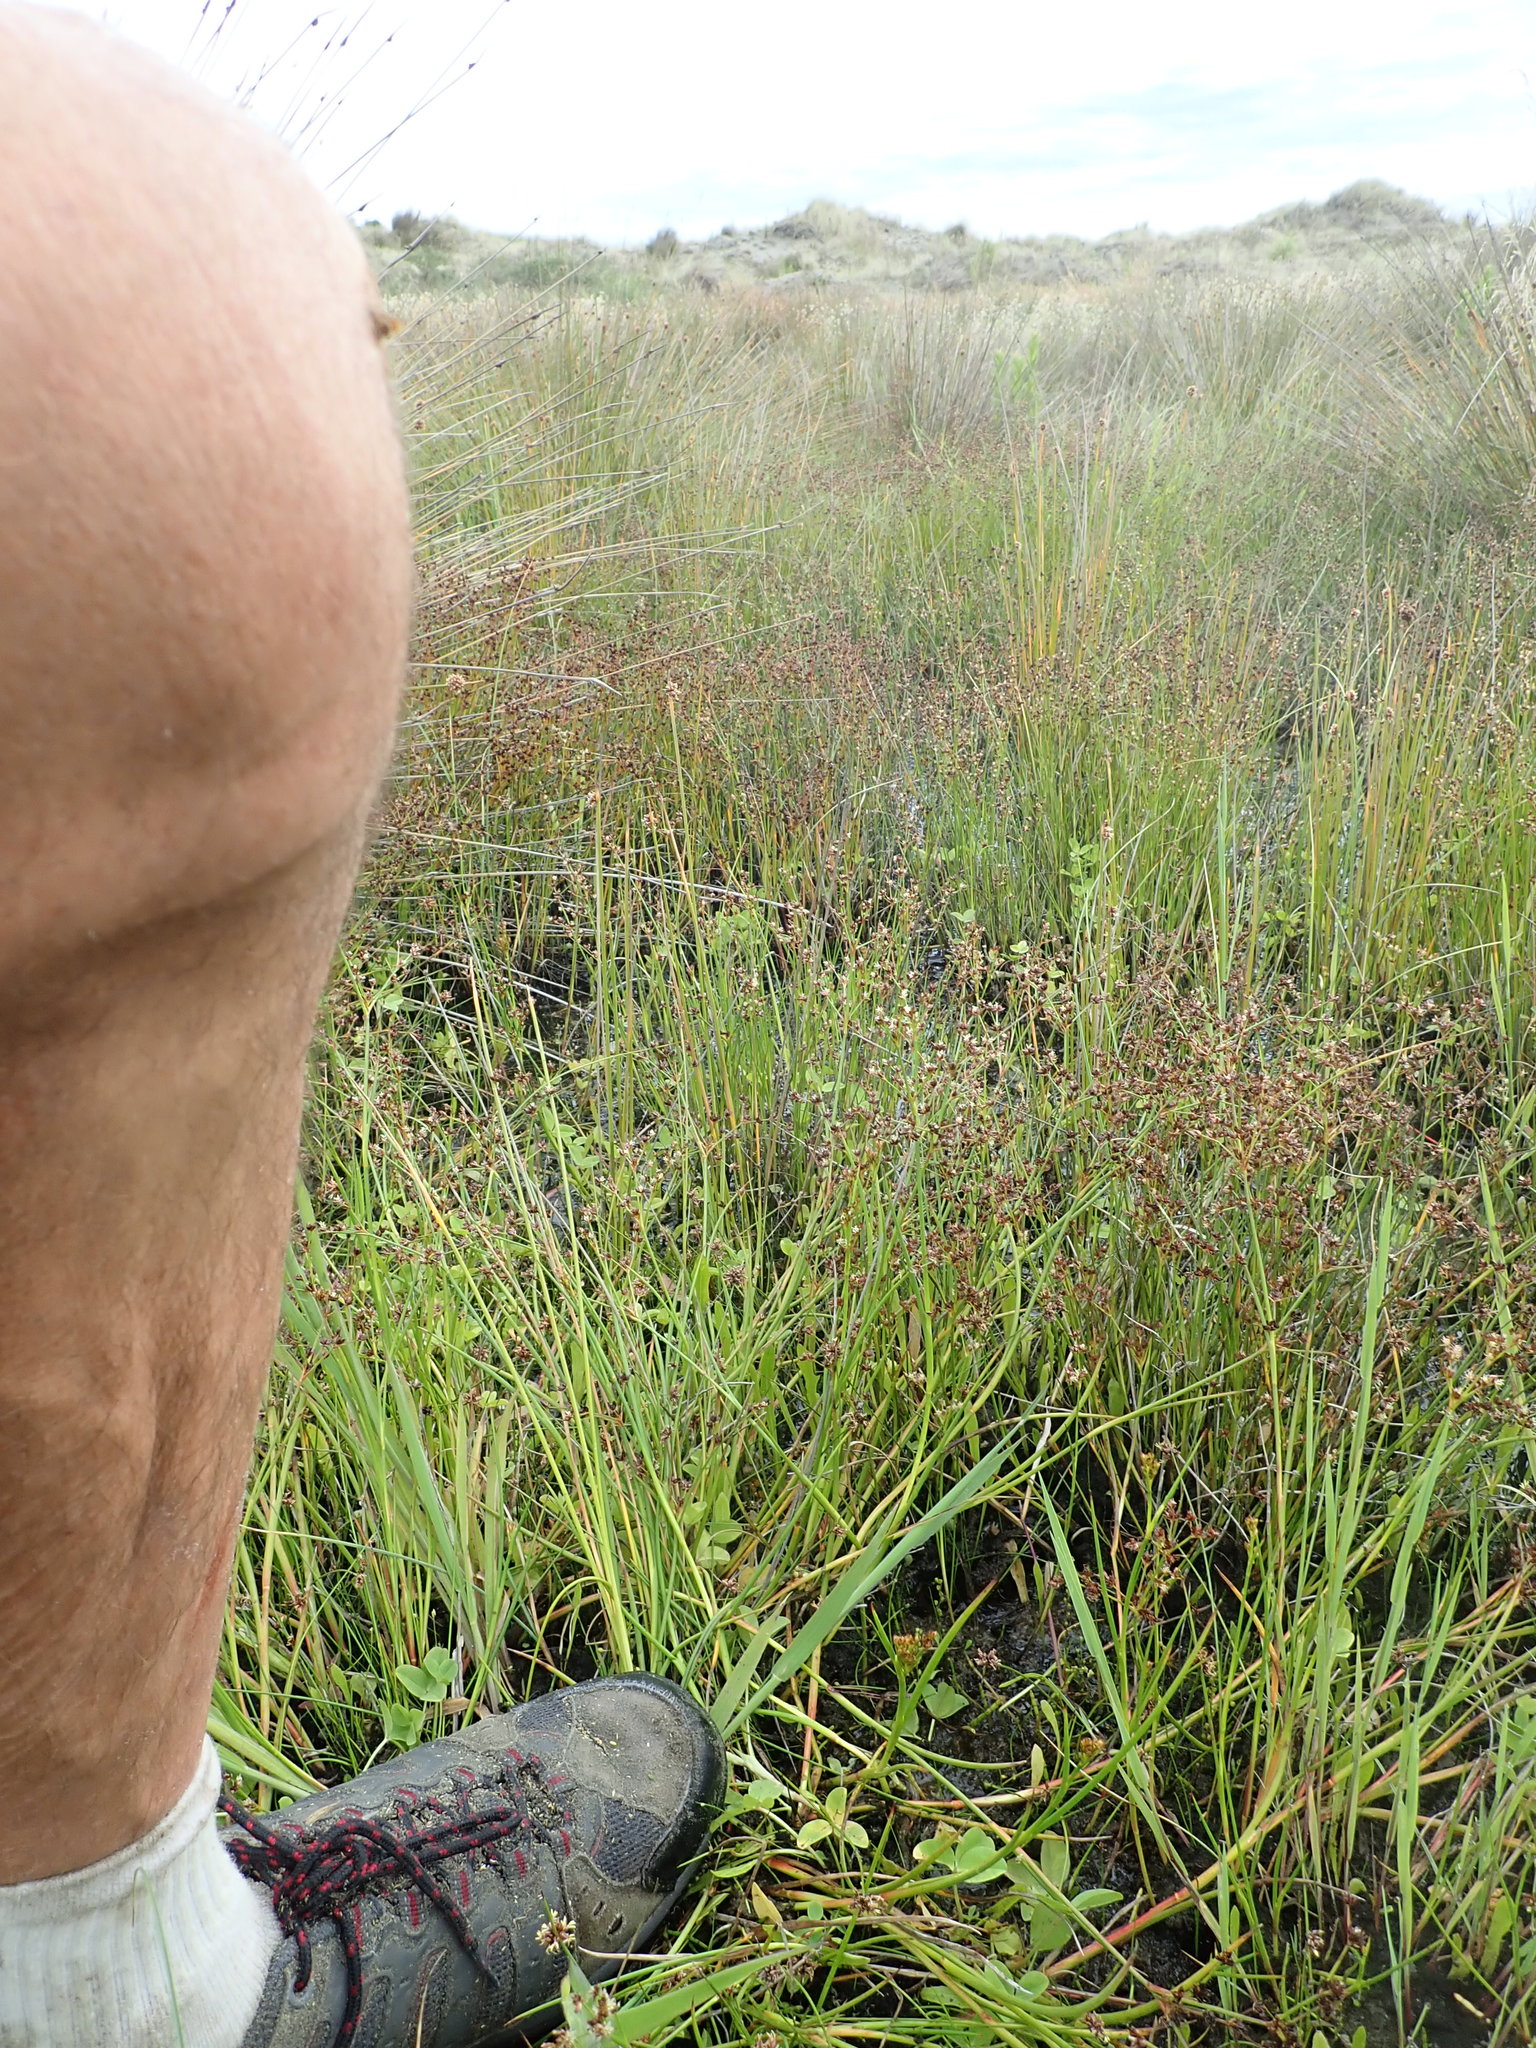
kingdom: Plantae
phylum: Tracheophyta
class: Magnoliopsida
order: Apiales
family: Apiaceae
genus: Lilaeopsis
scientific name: Lilaeopsis novae-zelandiae
